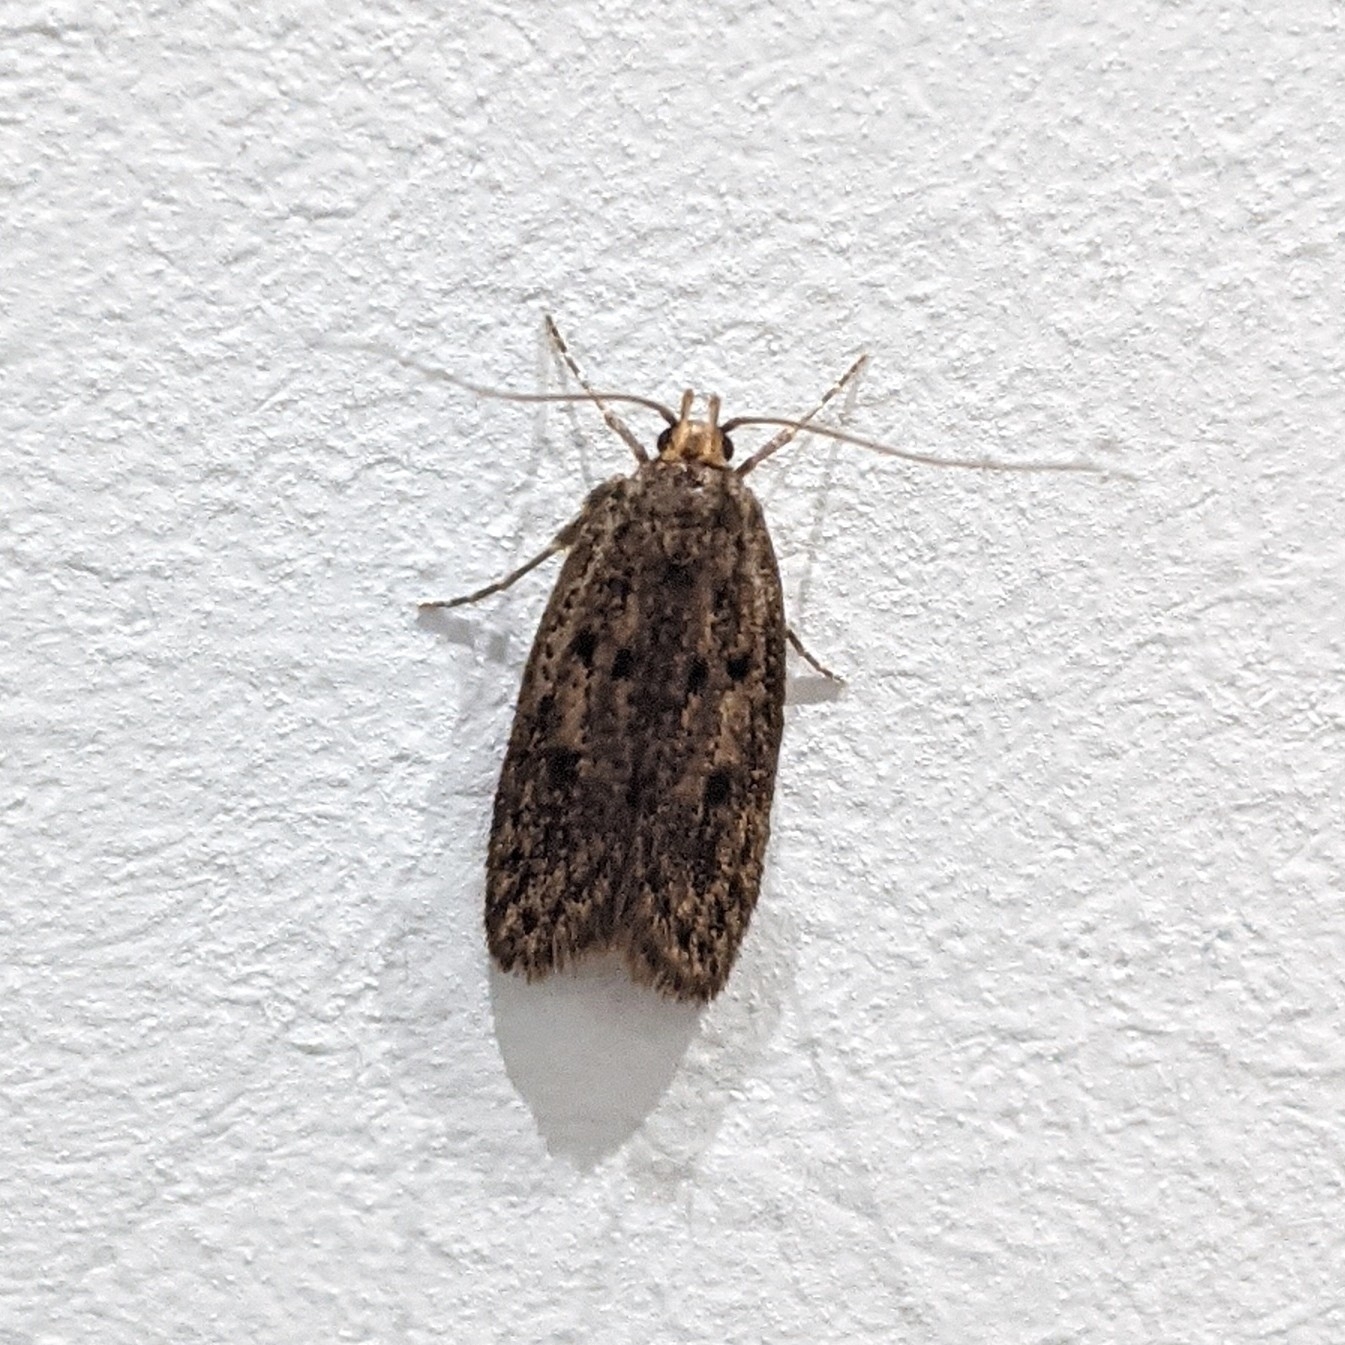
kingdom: Animalia
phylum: Arthropoda
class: Insecta
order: Lepidoptera
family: Oecophoridae
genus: Hofmannophila
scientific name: Hofmannophila pseudospretella
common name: Brown house moth
